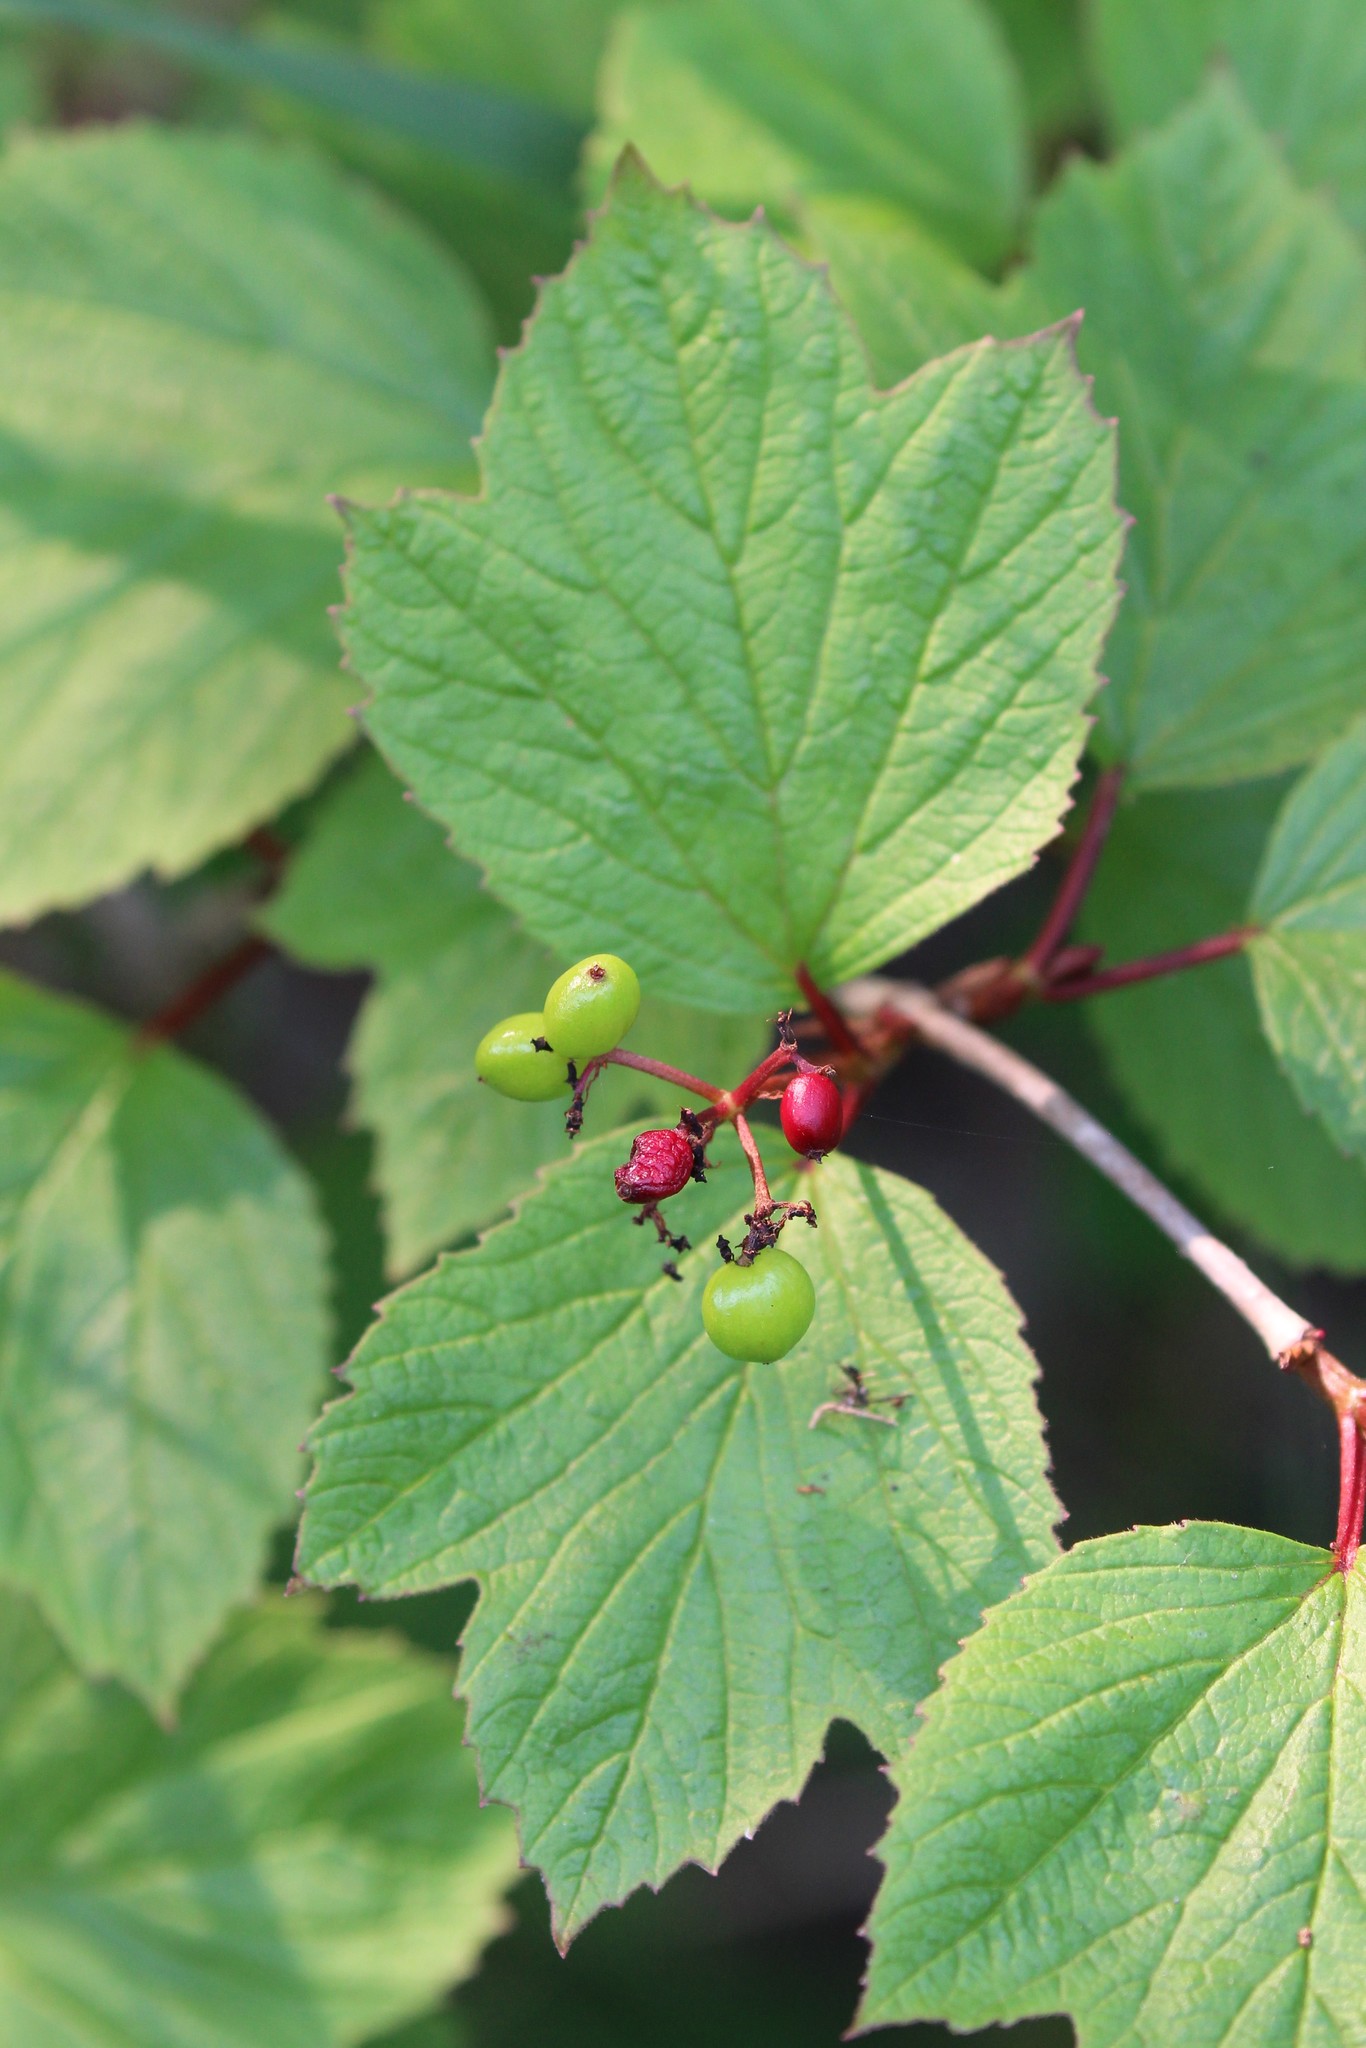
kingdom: Plantae
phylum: Tracheophyta
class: Magnoliopsida
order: Dipsacales
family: Viburnaceae
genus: Viburnum
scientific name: Viburnum edule
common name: Mooseberry
